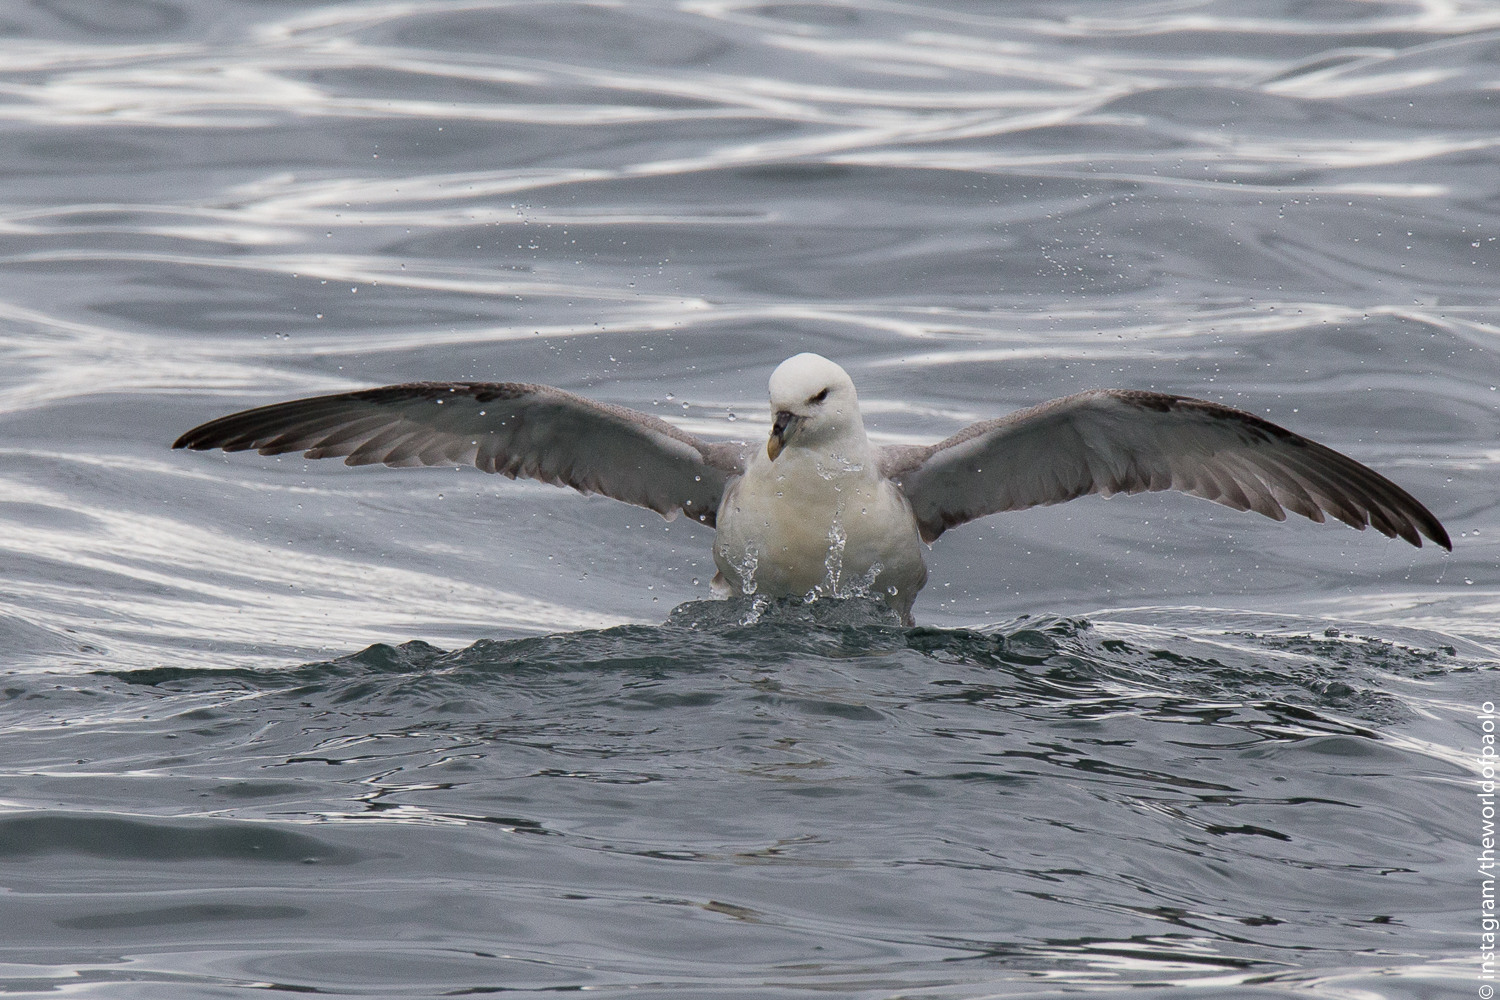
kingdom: Animalia
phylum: Chordata
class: Aves
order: Procellariiformes
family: Procellariidae
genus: Fulmarus
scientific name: Fulmarus glacialis
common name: Northern fulmar
